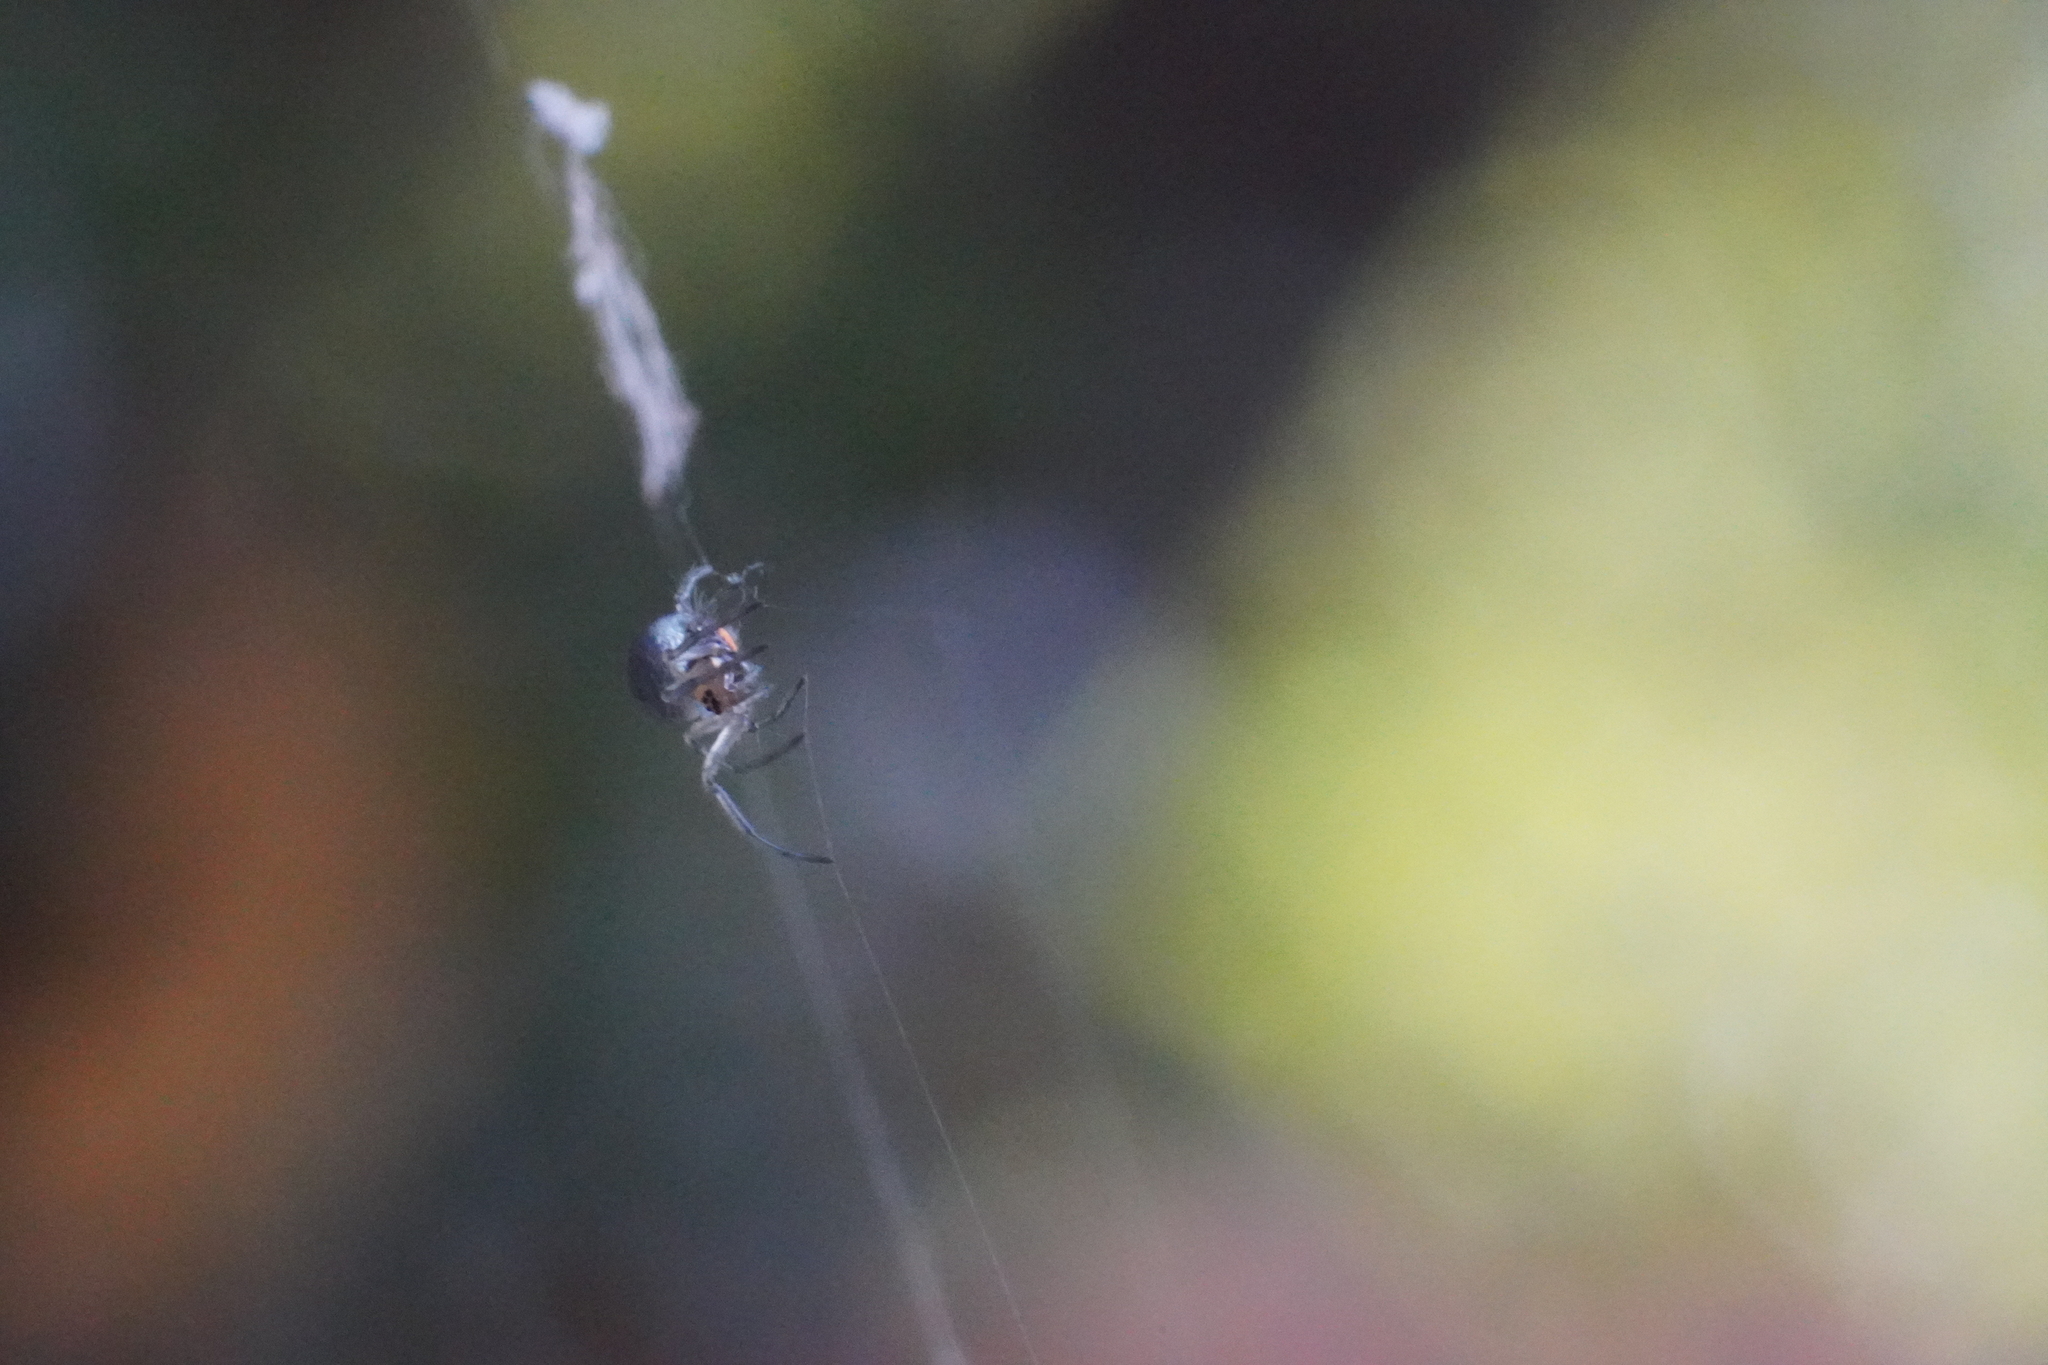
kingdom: Animalia
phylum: Arthropoda
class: Arachnida
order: Araneae
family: Tetragnathidae
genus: Leucauge
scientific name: Leucauge venusta
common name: Longjawed orb weavers
